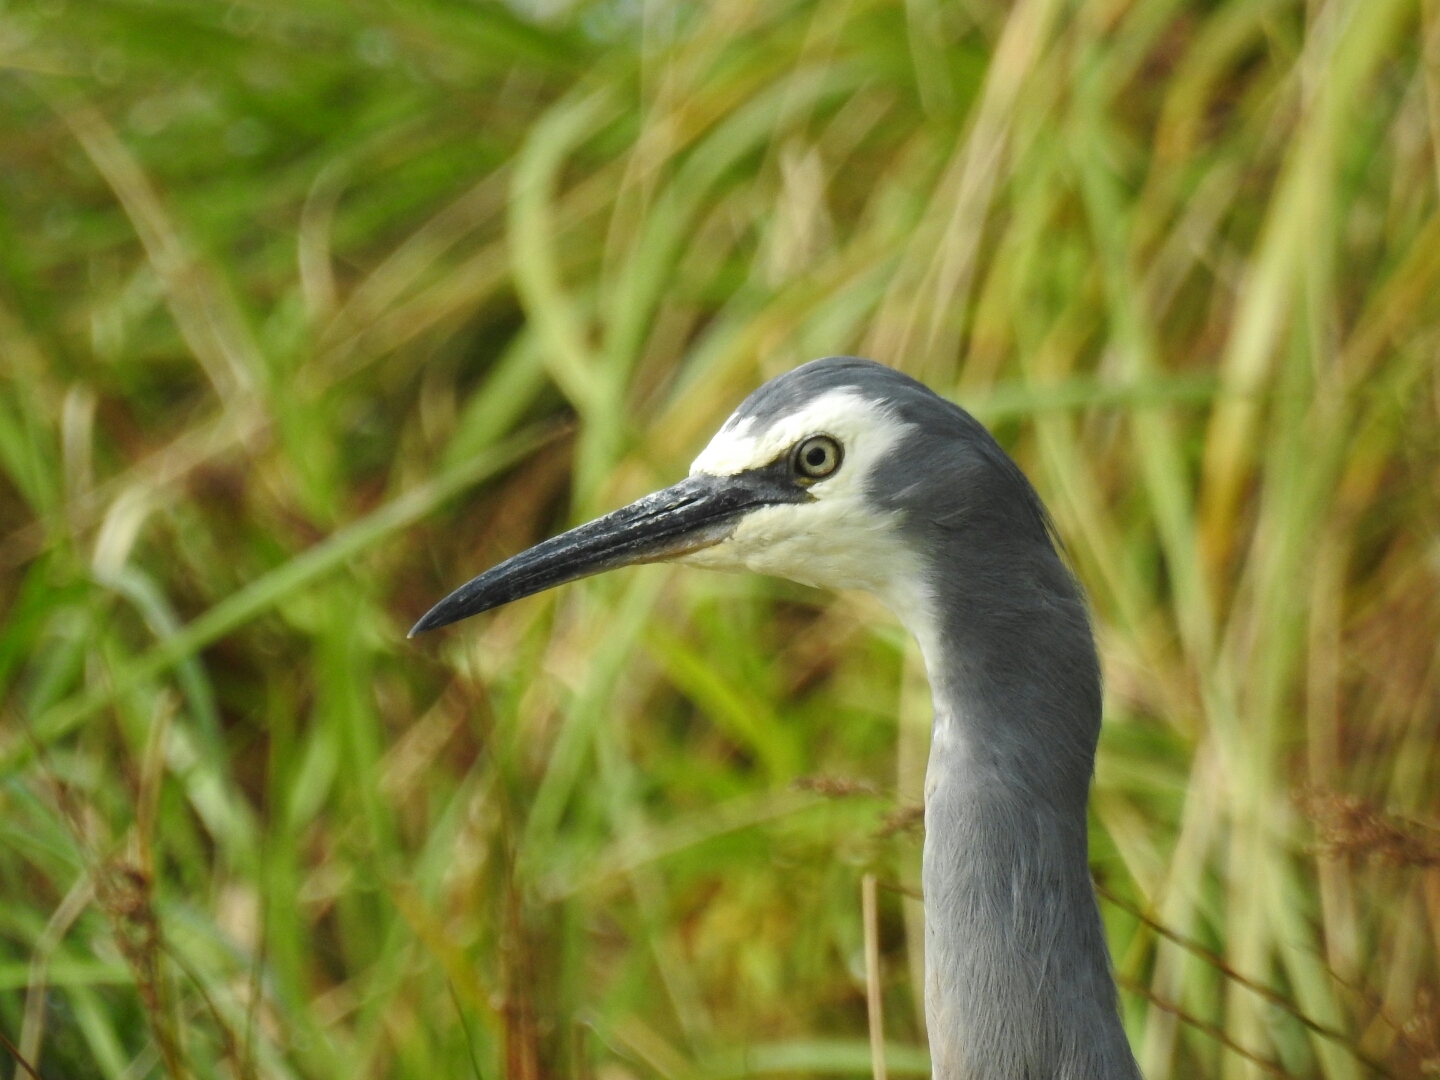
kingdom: Animalia
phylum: Chordata
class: Aves
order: Pelecaniformes
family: Ardeidae
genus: Egretta
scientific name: Egretta novaehollandiae
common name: White-faced heron
